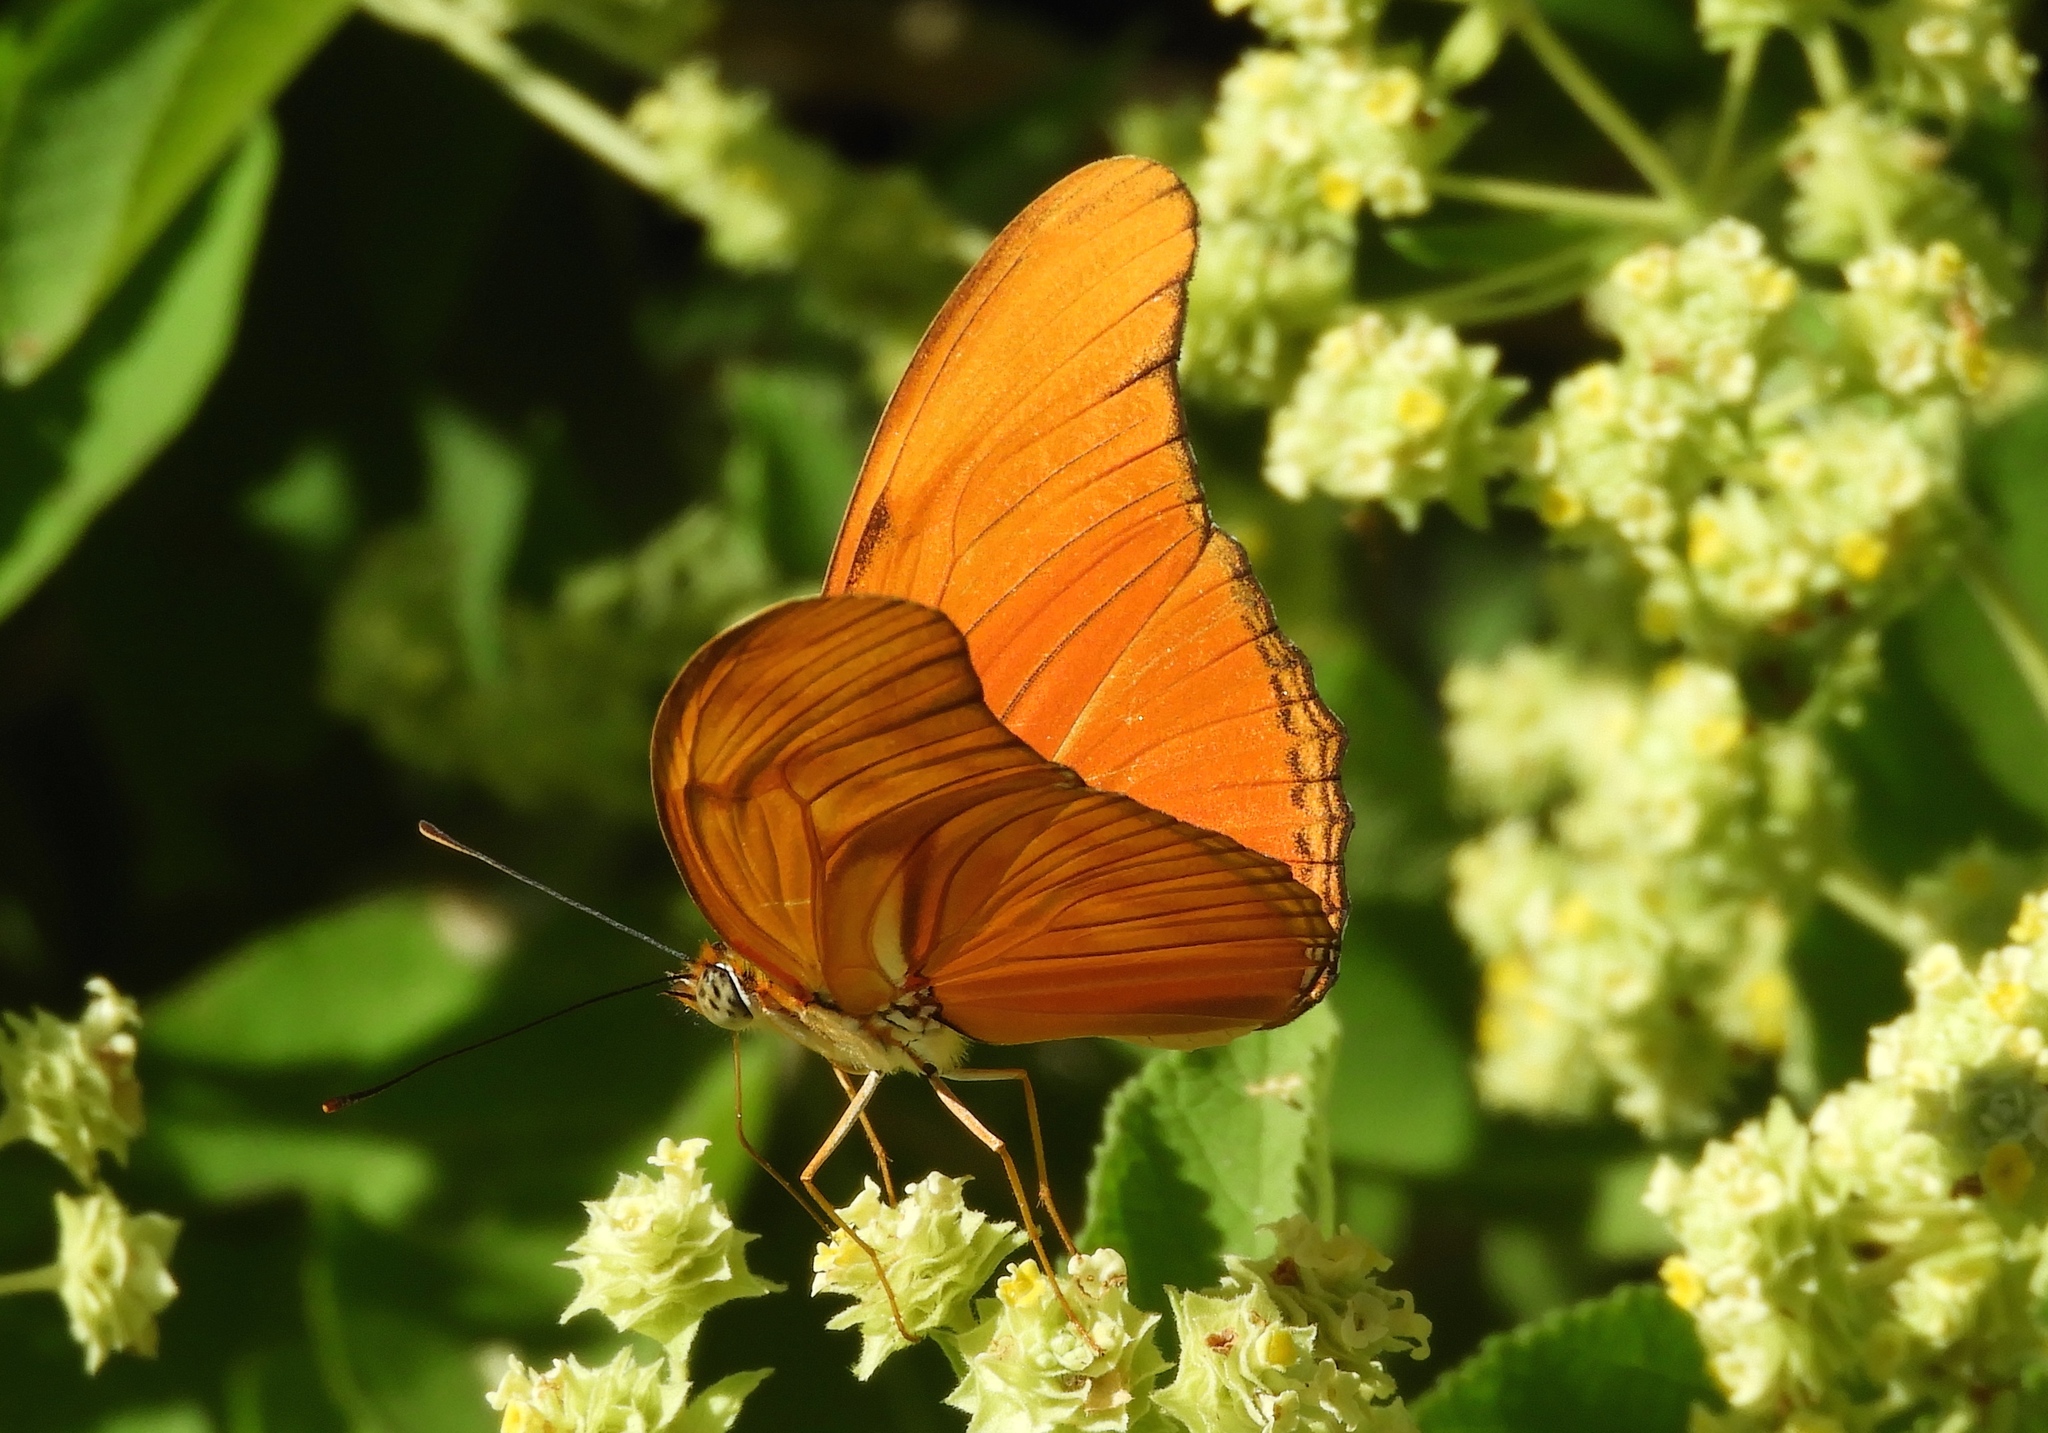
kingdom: Animalia
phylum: Arthropoda
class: Insecta
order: Lepidoptera
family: Nymphalidae
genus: Dryas
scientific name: Dryas iulia
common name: Flambeau
